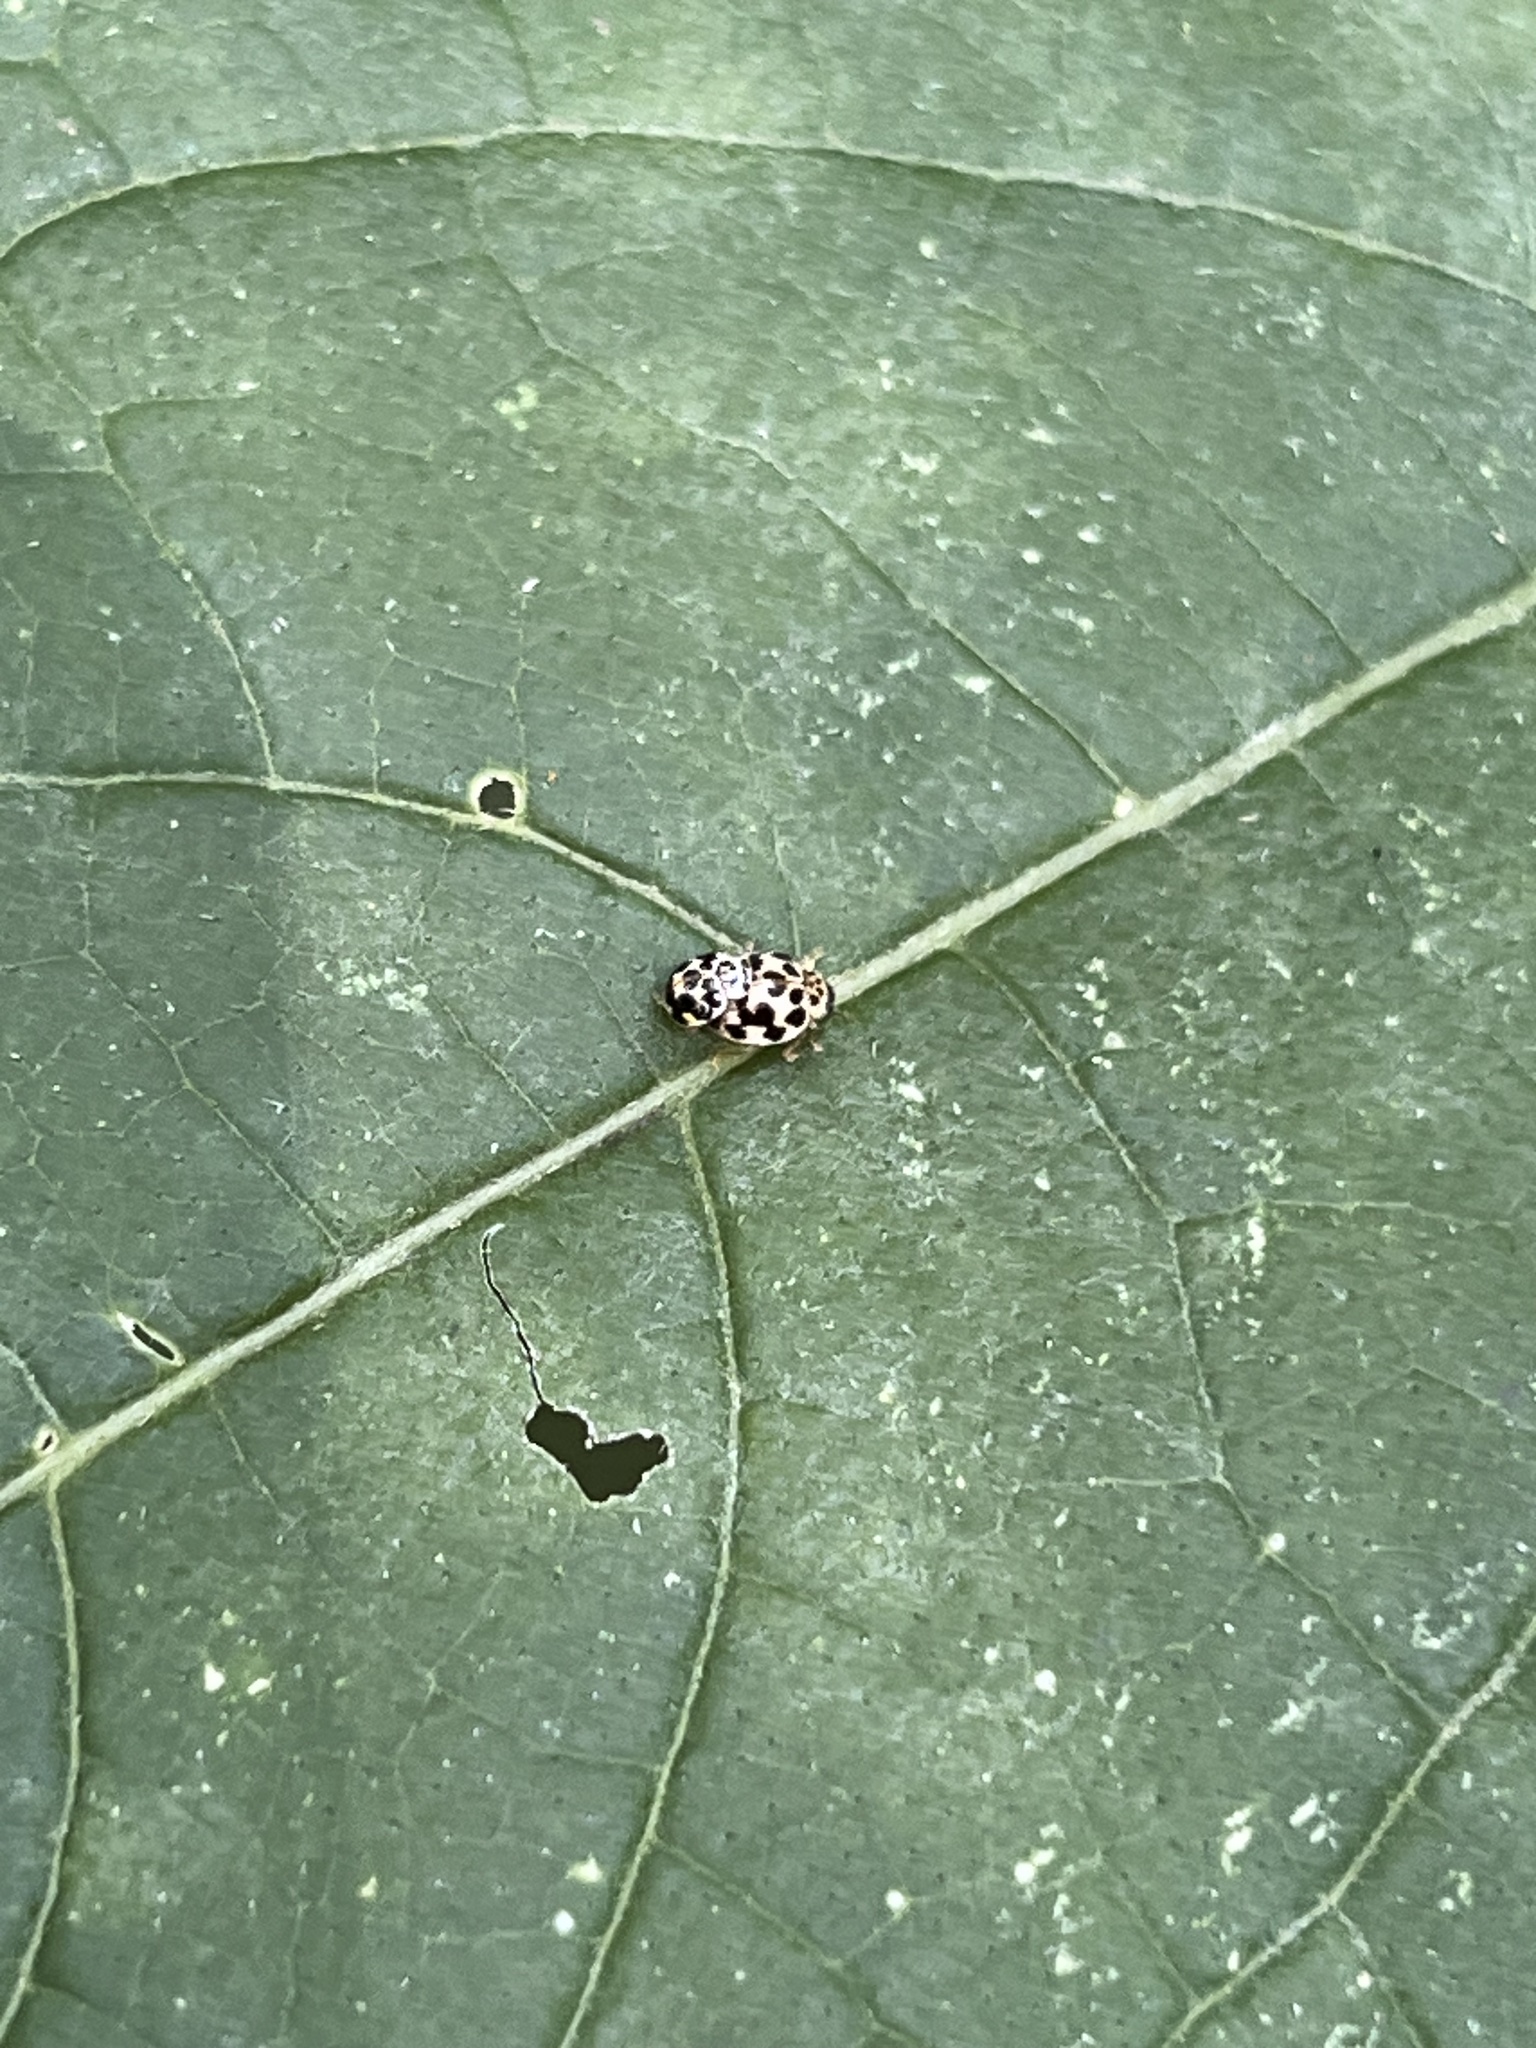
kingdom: Animalia
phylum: Arthropoda
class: Insecta
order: Coleoptera
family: Coccinellidae
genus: Psyllobora
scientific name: Psyllobora vigintimaculata
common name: Ladybird beetle
